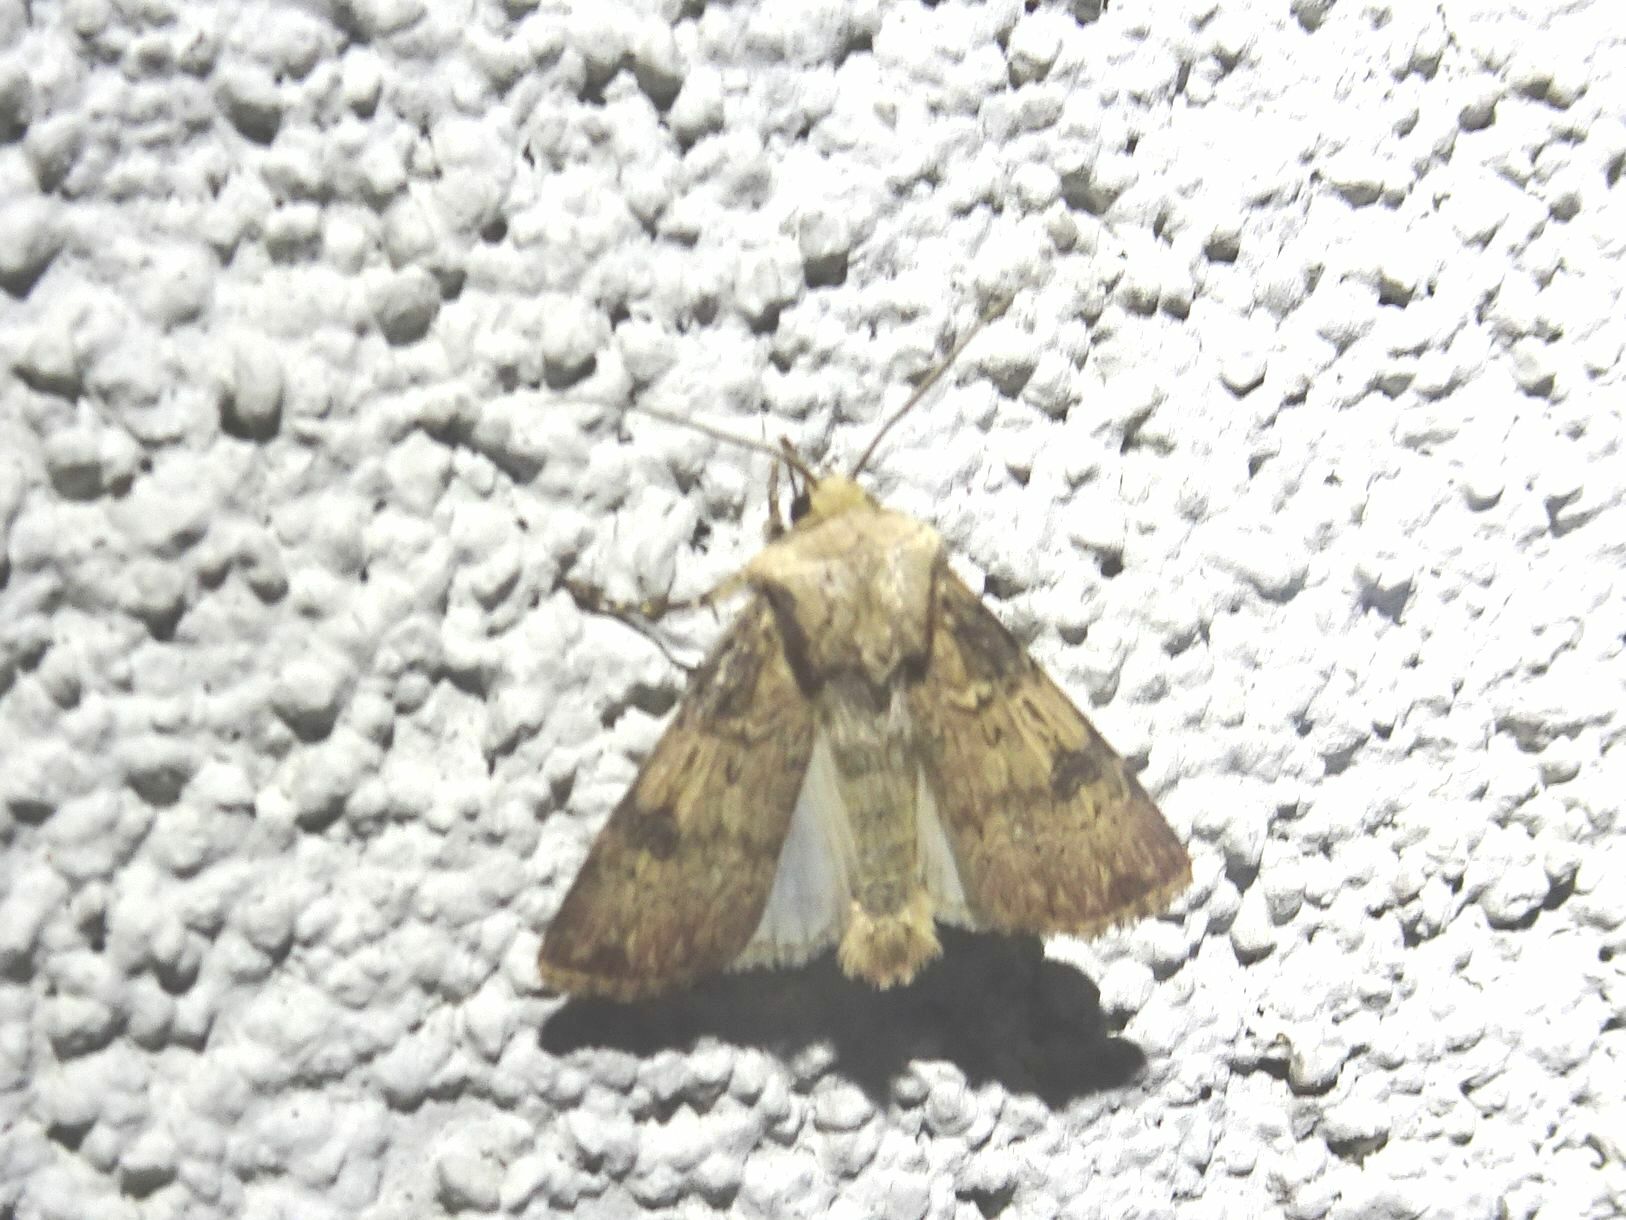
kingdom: Animalia
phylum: Arthropoda
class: Insecta
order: Lepidoptera
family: Noctuidae
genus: Agrotis
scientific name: Agrotis puta
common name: Shuttle-shaped dart
